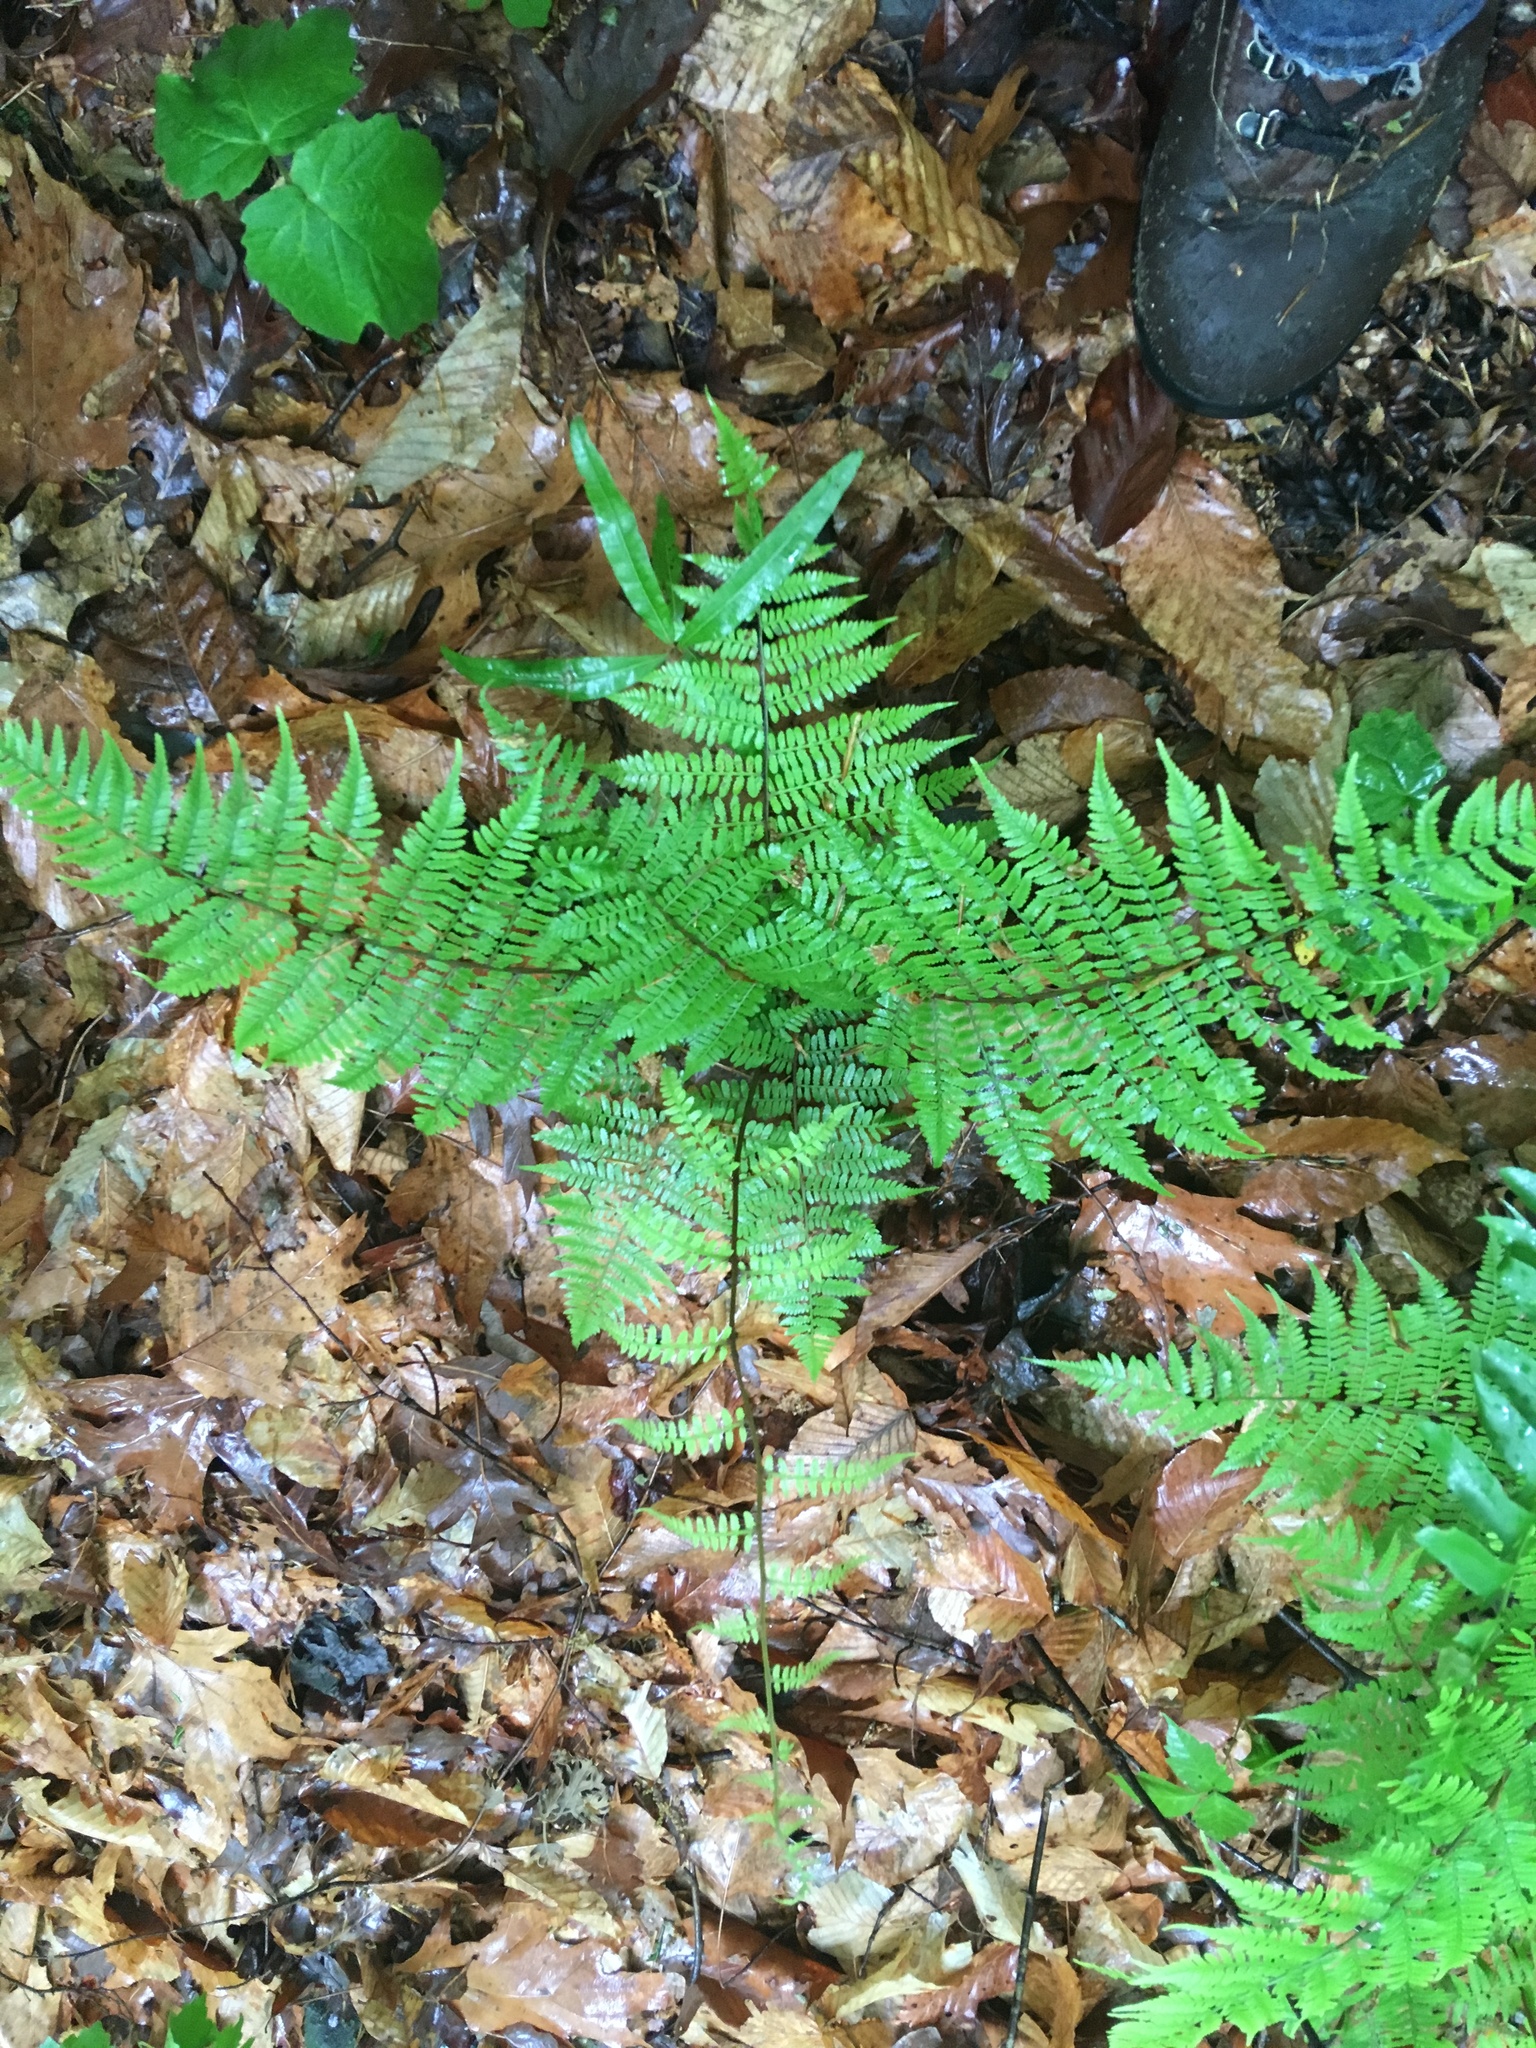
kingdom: Plantae
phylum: Tracheophyta
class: Polypodiopsida
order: Polypodiales
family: Athyriaceae
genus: Athyrium
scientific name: Athyrium asplenioides
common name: Southern lady fern
